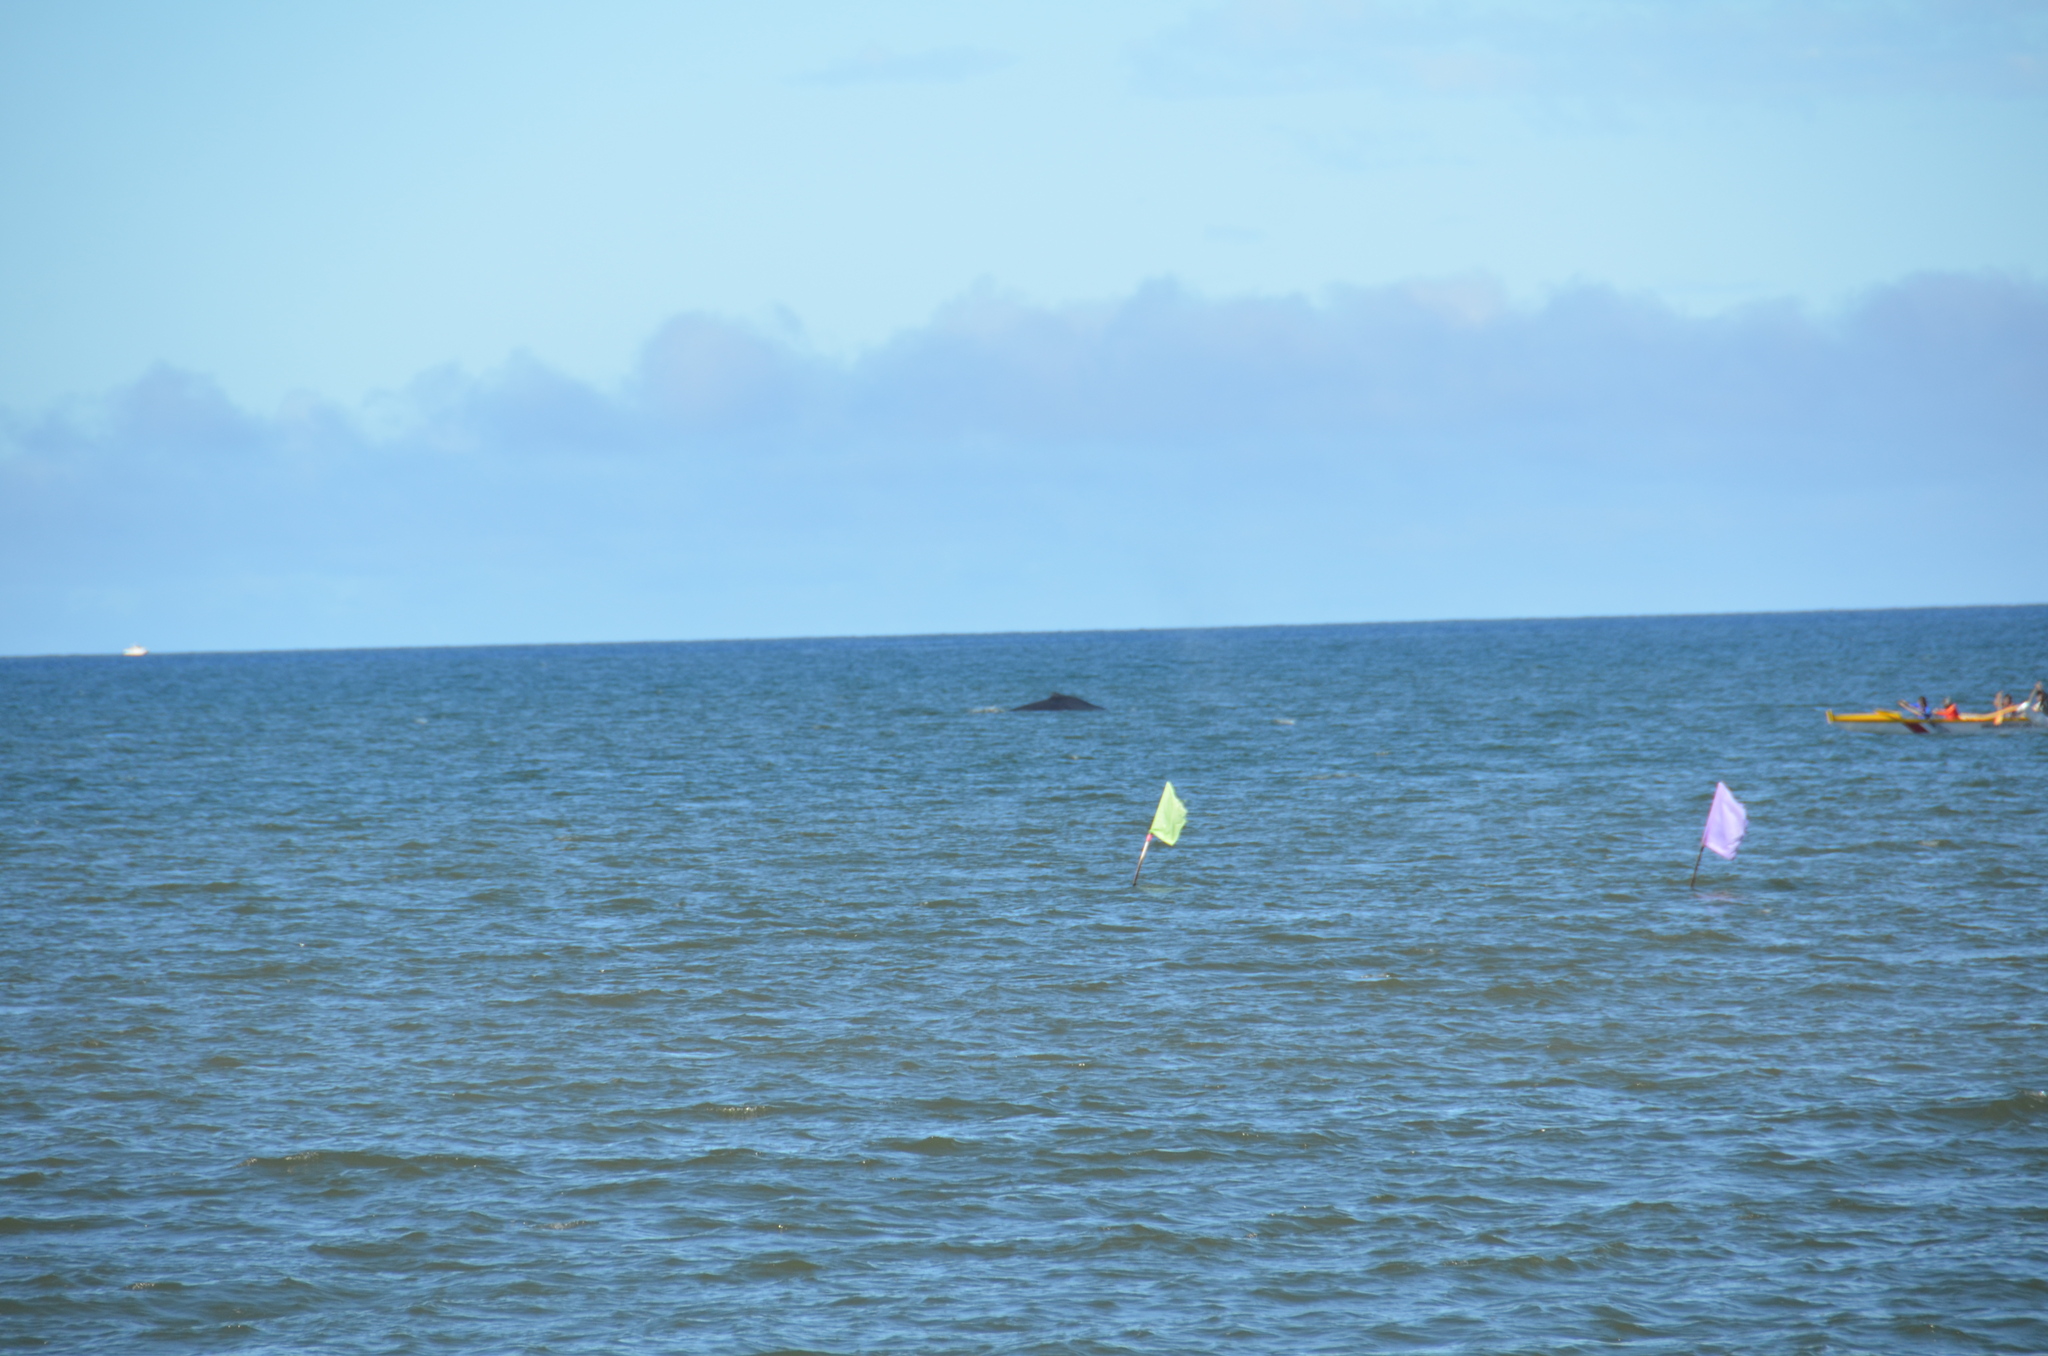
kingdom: Animalia
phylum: Chordata
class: Mammalia
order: Cetacea
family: Balaenopteridae
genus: Megaptera
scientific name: Megaptera novaeangliae
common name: Humpback whale
